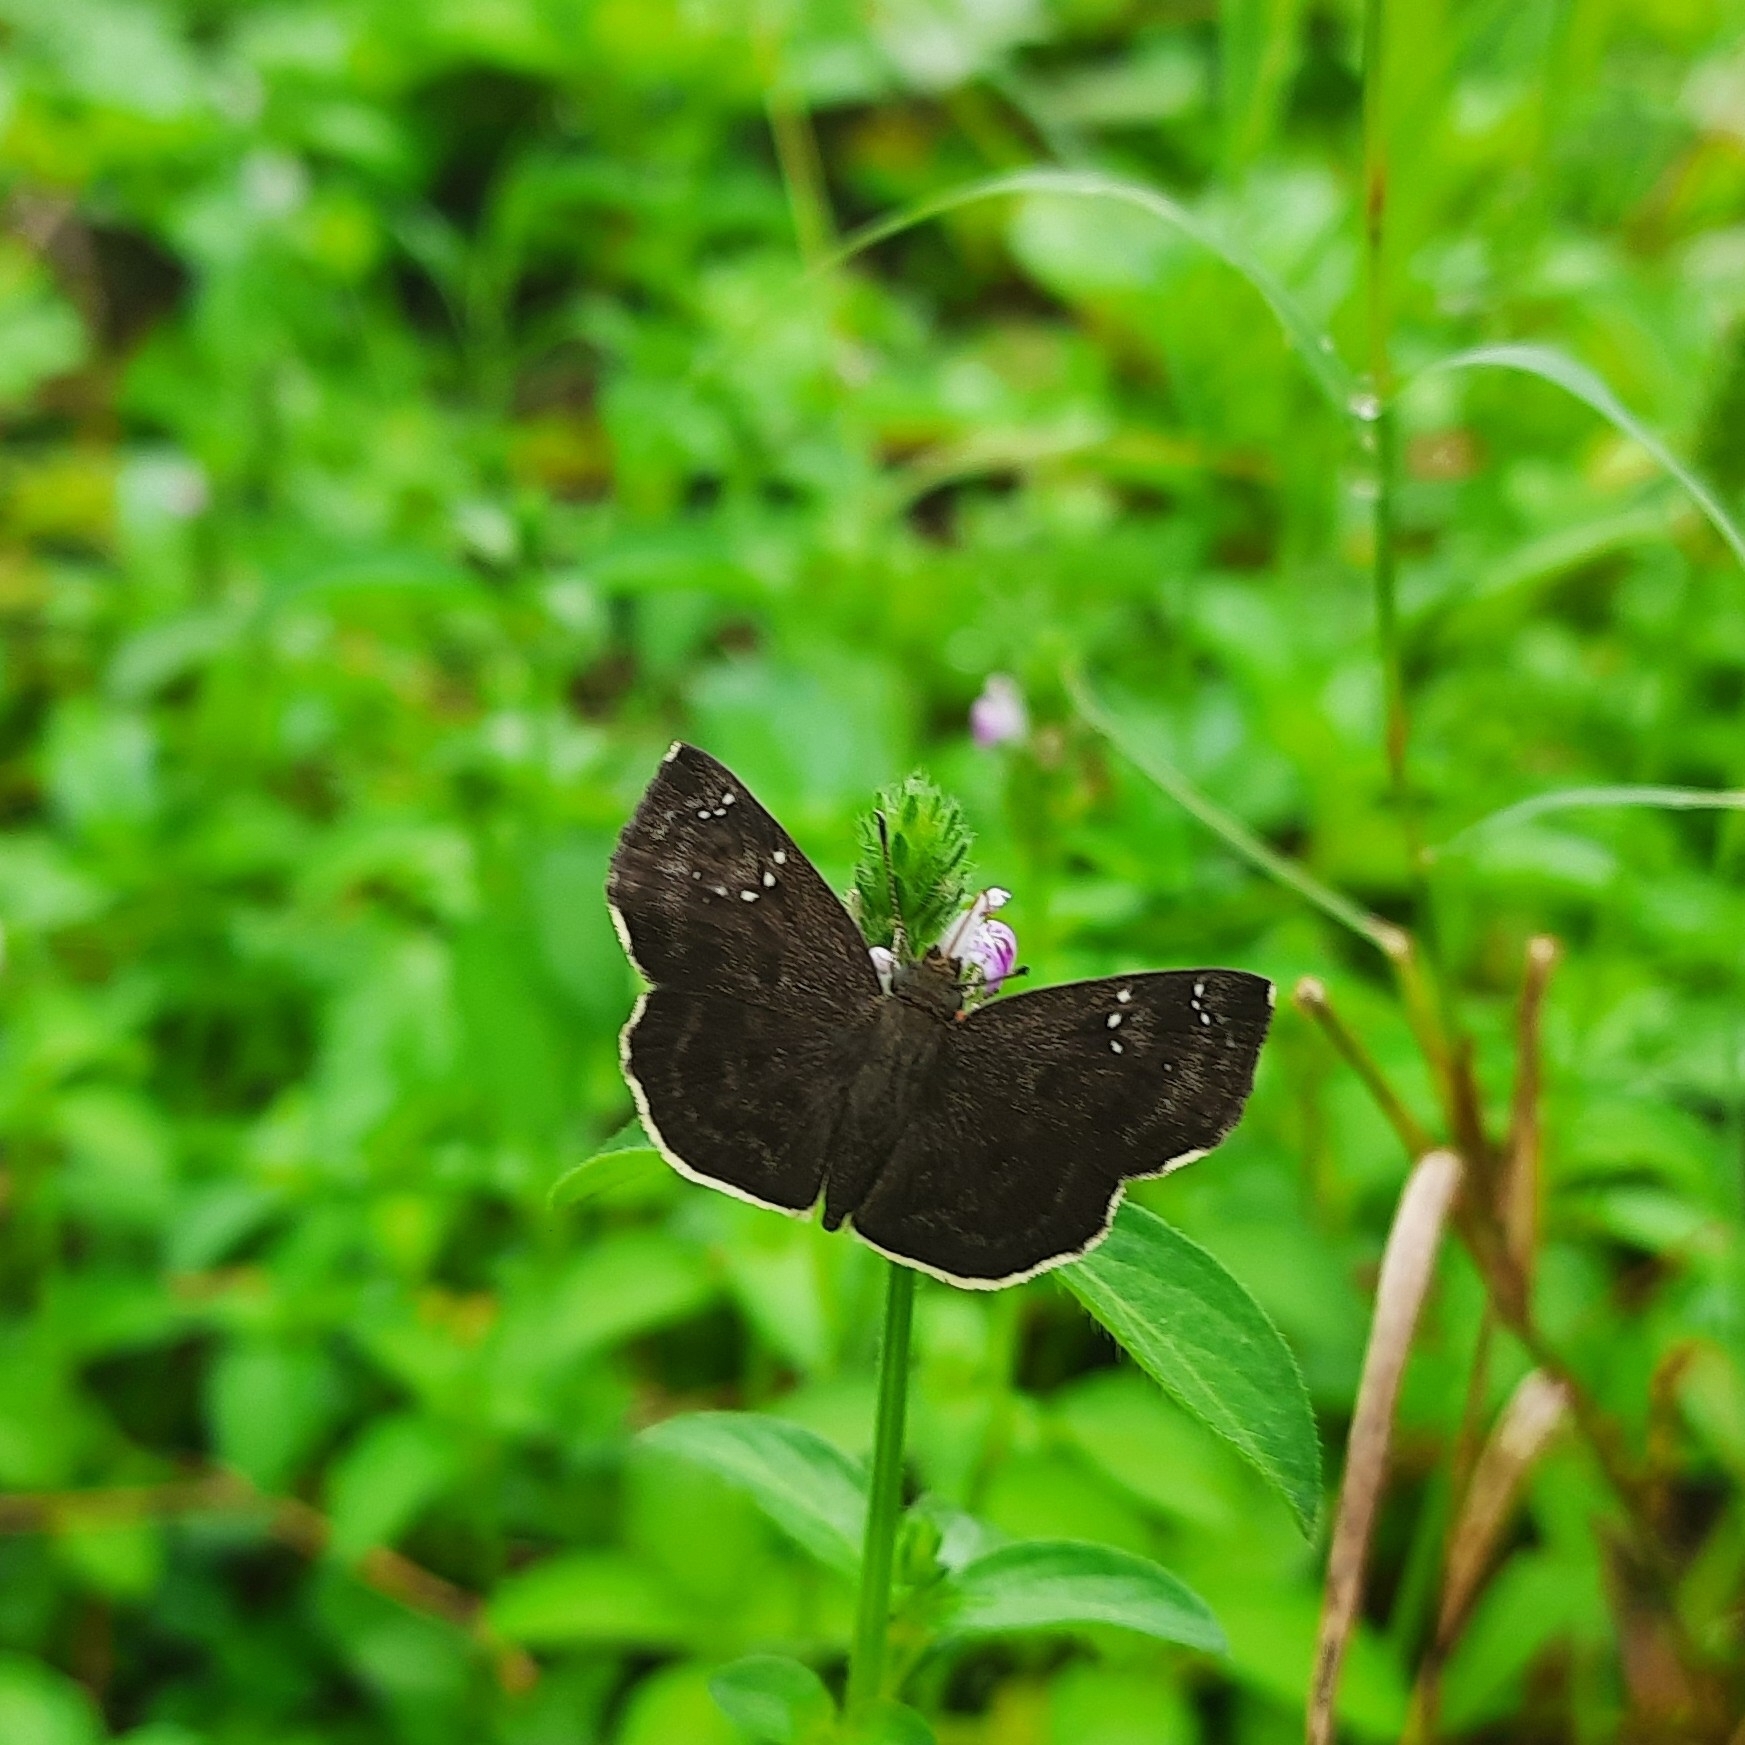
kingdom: Animalia
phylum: Arthropoda
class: Insecta
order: Lepidoptera
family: Hesperiidae
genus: Sarangesa
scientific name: Sarangesa dasahara
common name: Common small flat
